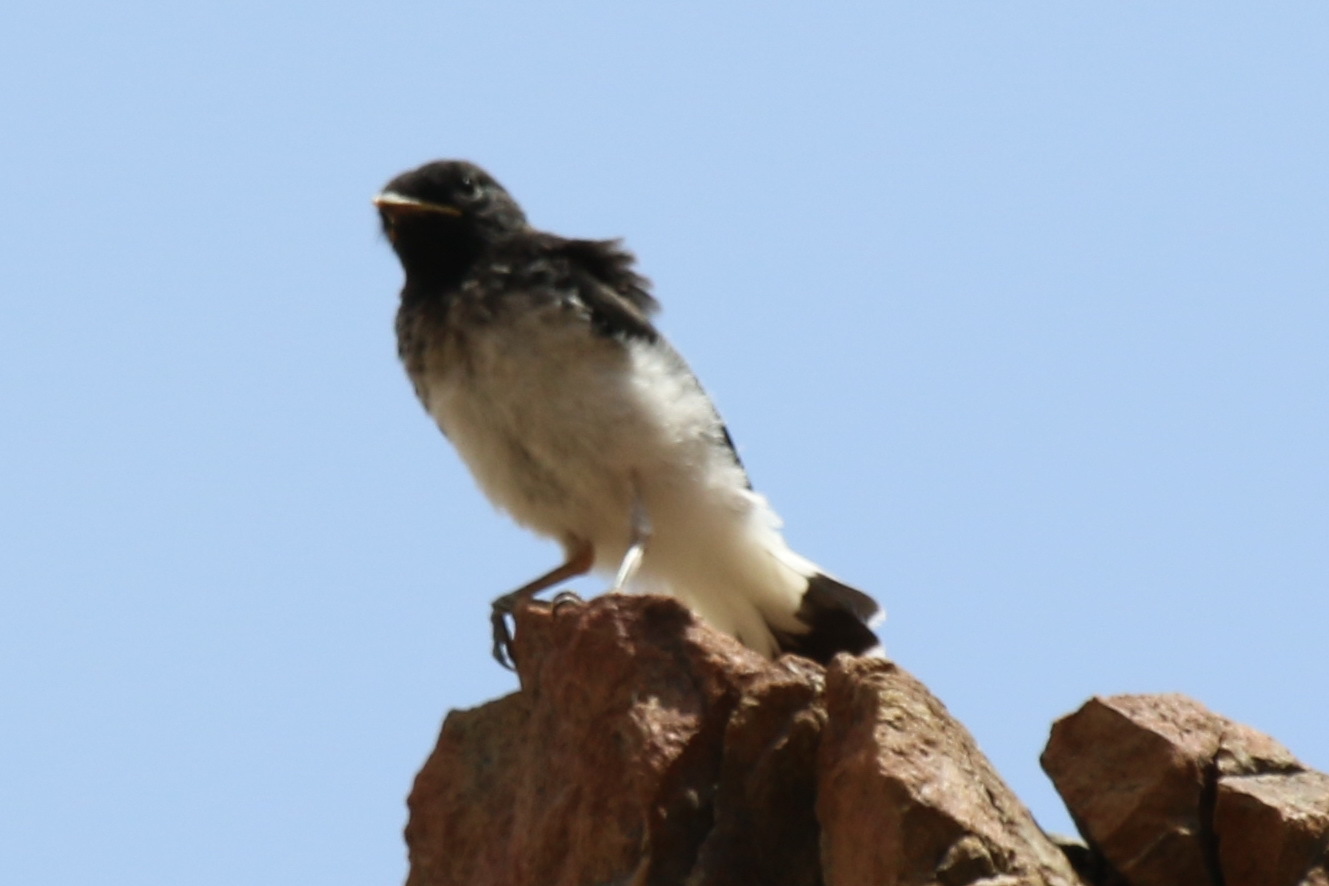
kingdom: Animalia
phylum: Chordata
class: Aves
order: Passeriformes
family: Muscicapidae
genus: Oenanthe
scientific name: Oenanthe albonigra
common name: Hume's wheatear
